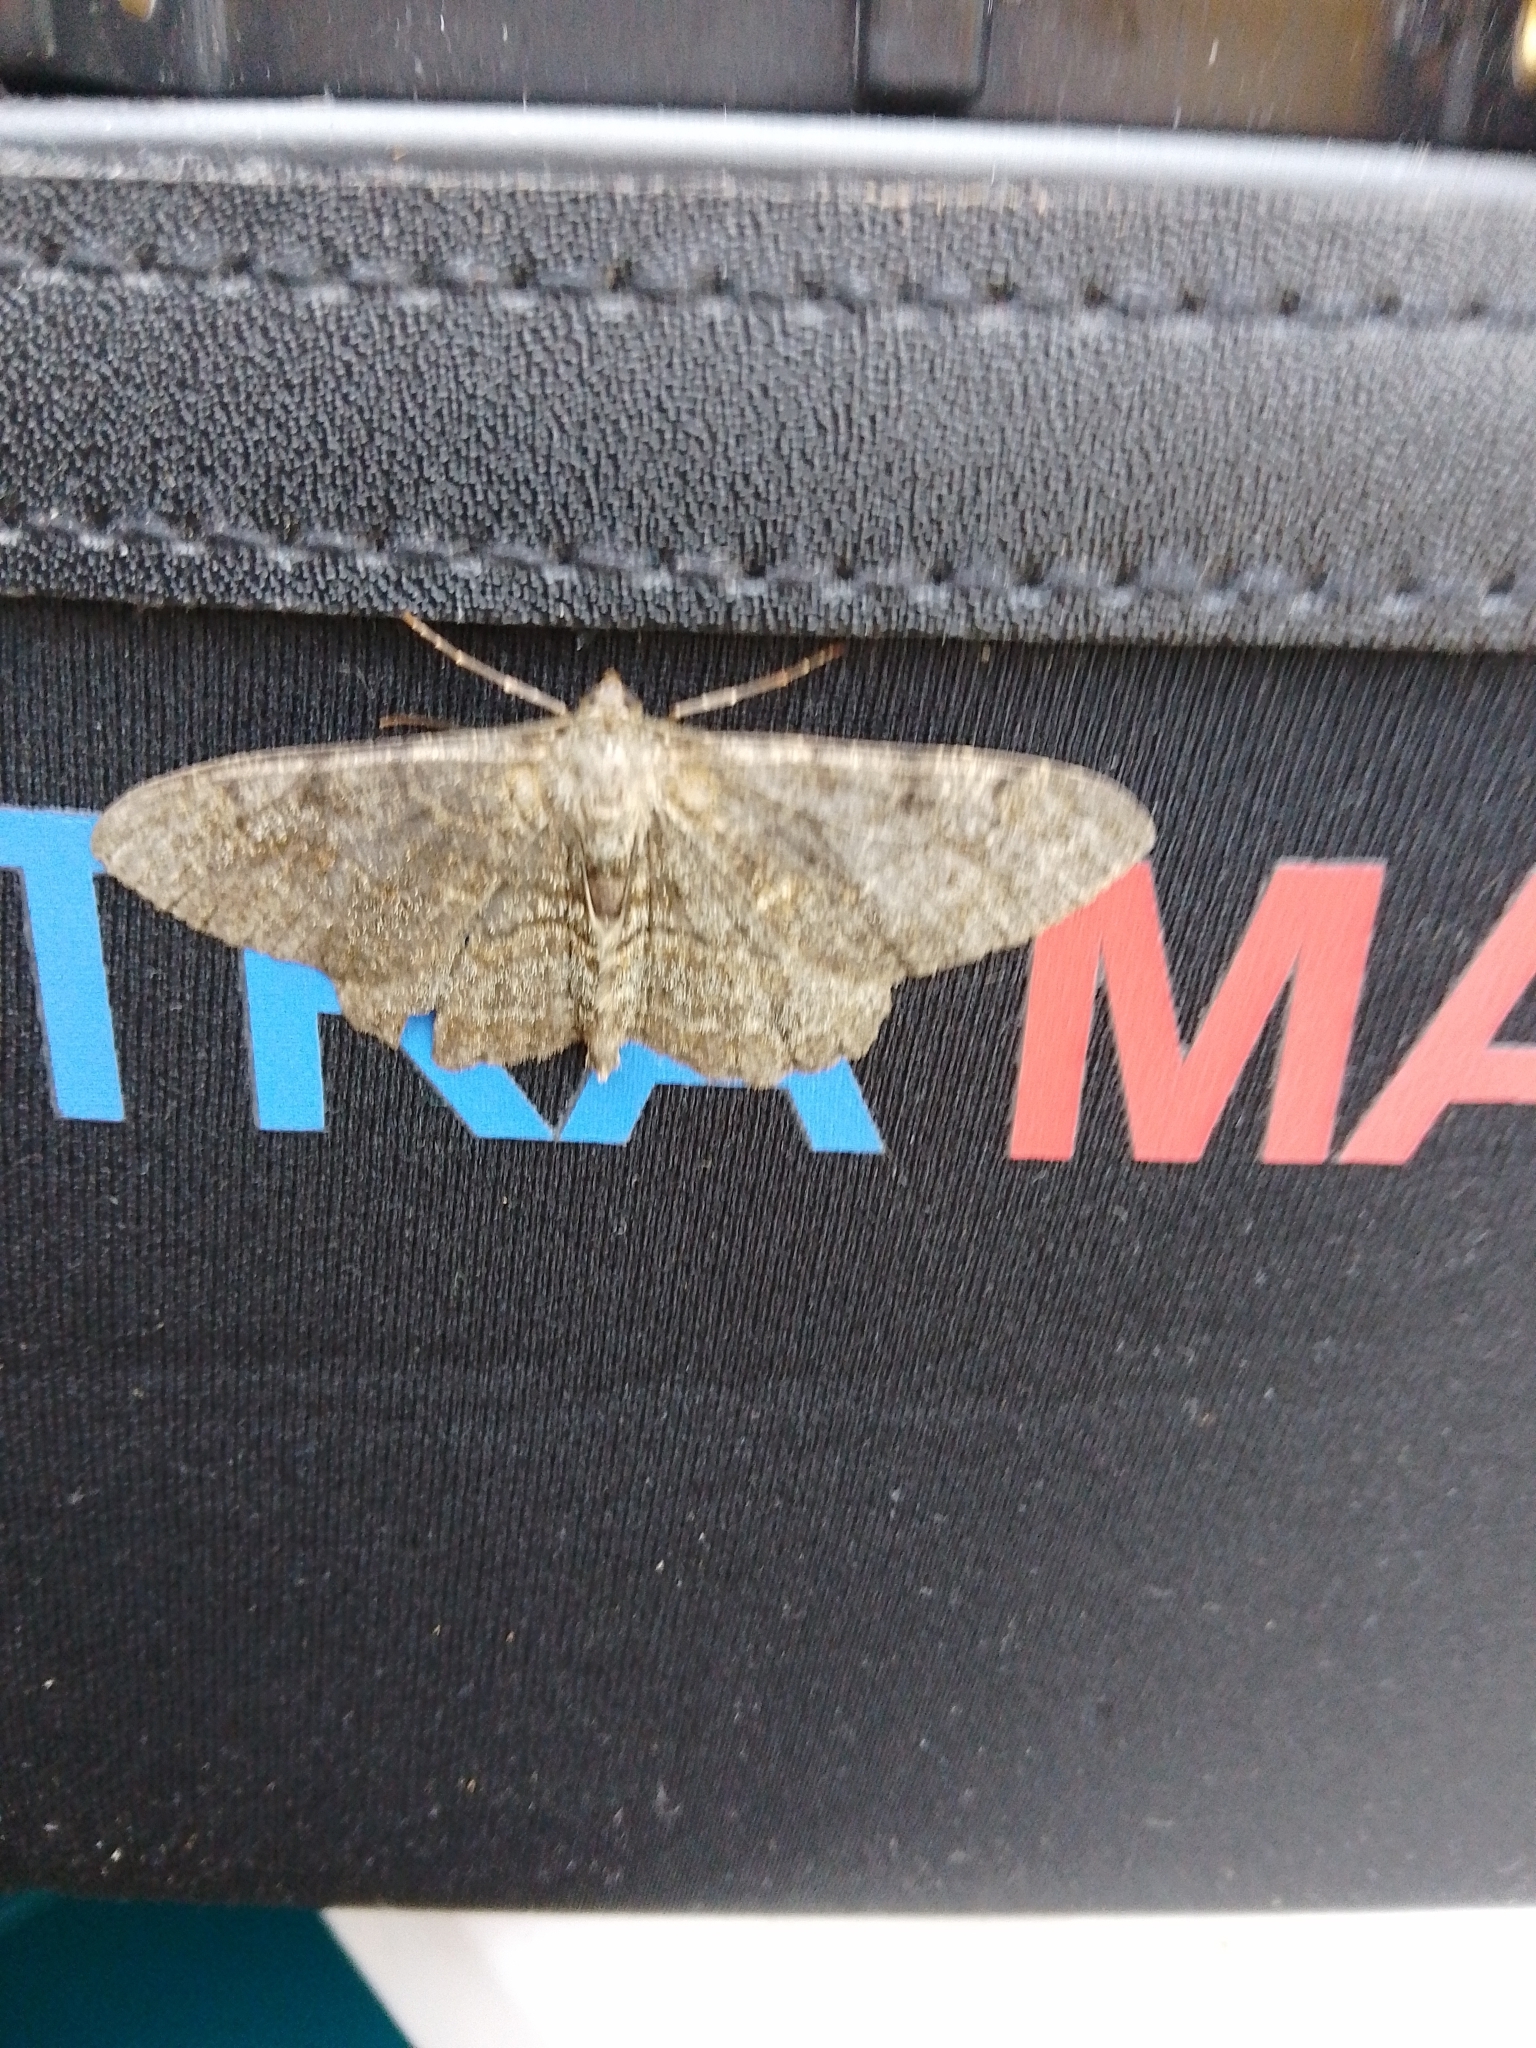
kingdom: Animalia
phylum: Arthropoda
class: Insecta
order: Lepidoptera
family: Geometridae
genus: Alcis
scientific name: Alcis repandata
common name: Mottled beauty
